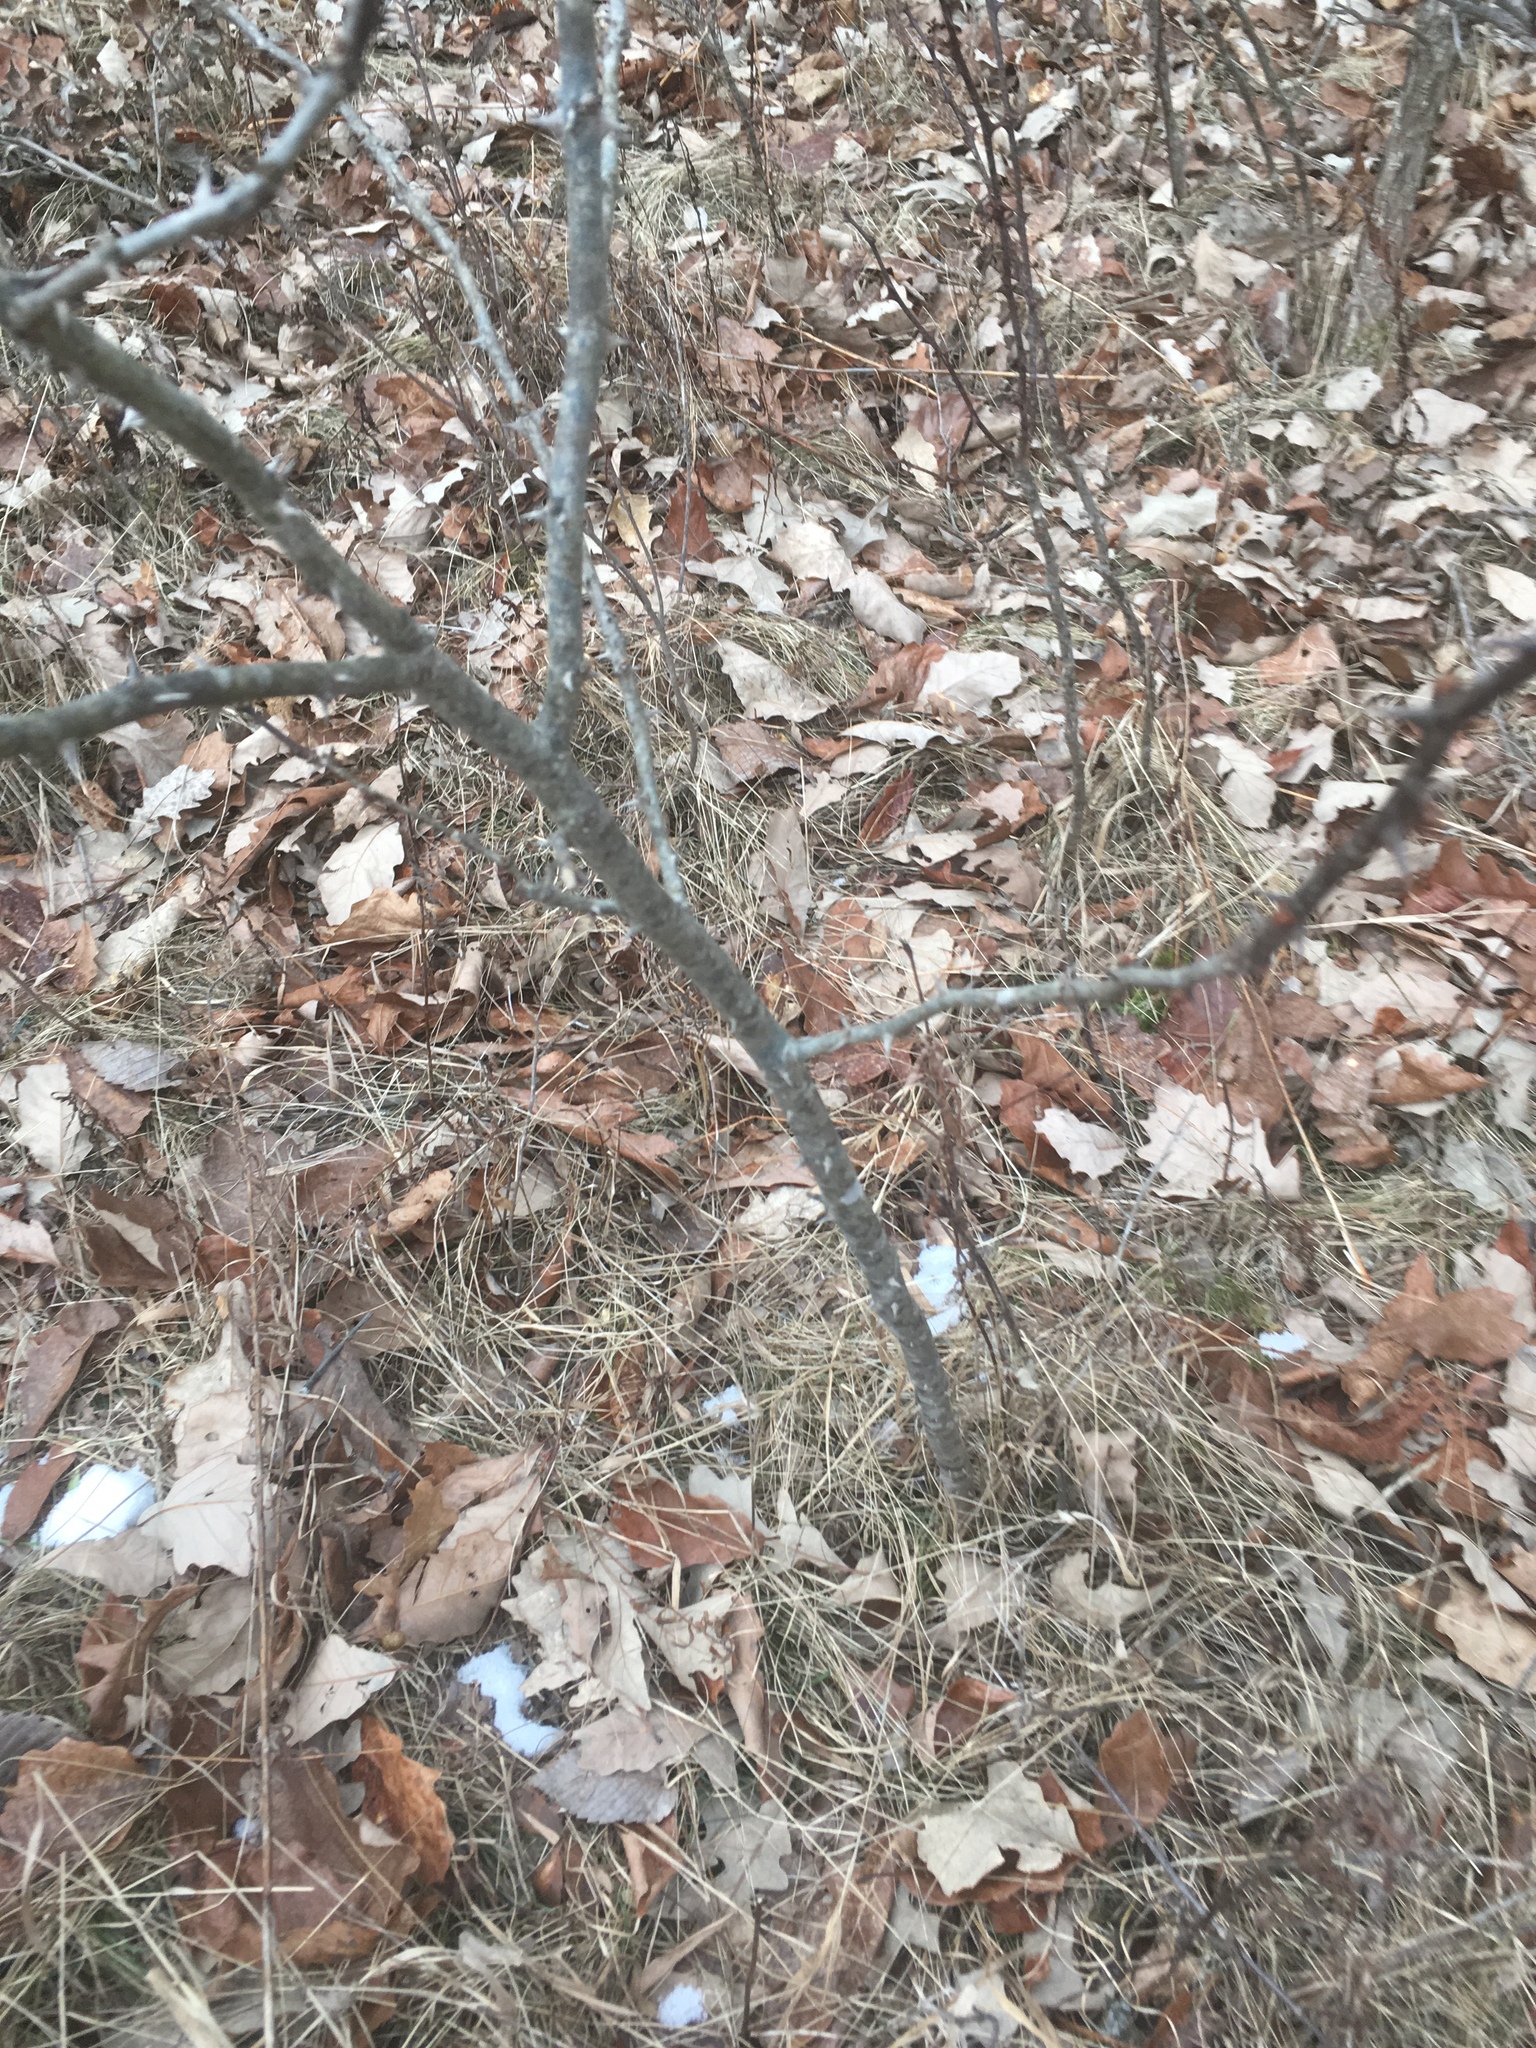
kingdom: Plantae
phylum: Tracheophyta
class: Magnoliopsida
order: Sapindales
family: Rutaceae
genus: Zanthoxylum
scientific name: Zanthoxylum americanum
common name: Northern prickly-ash
